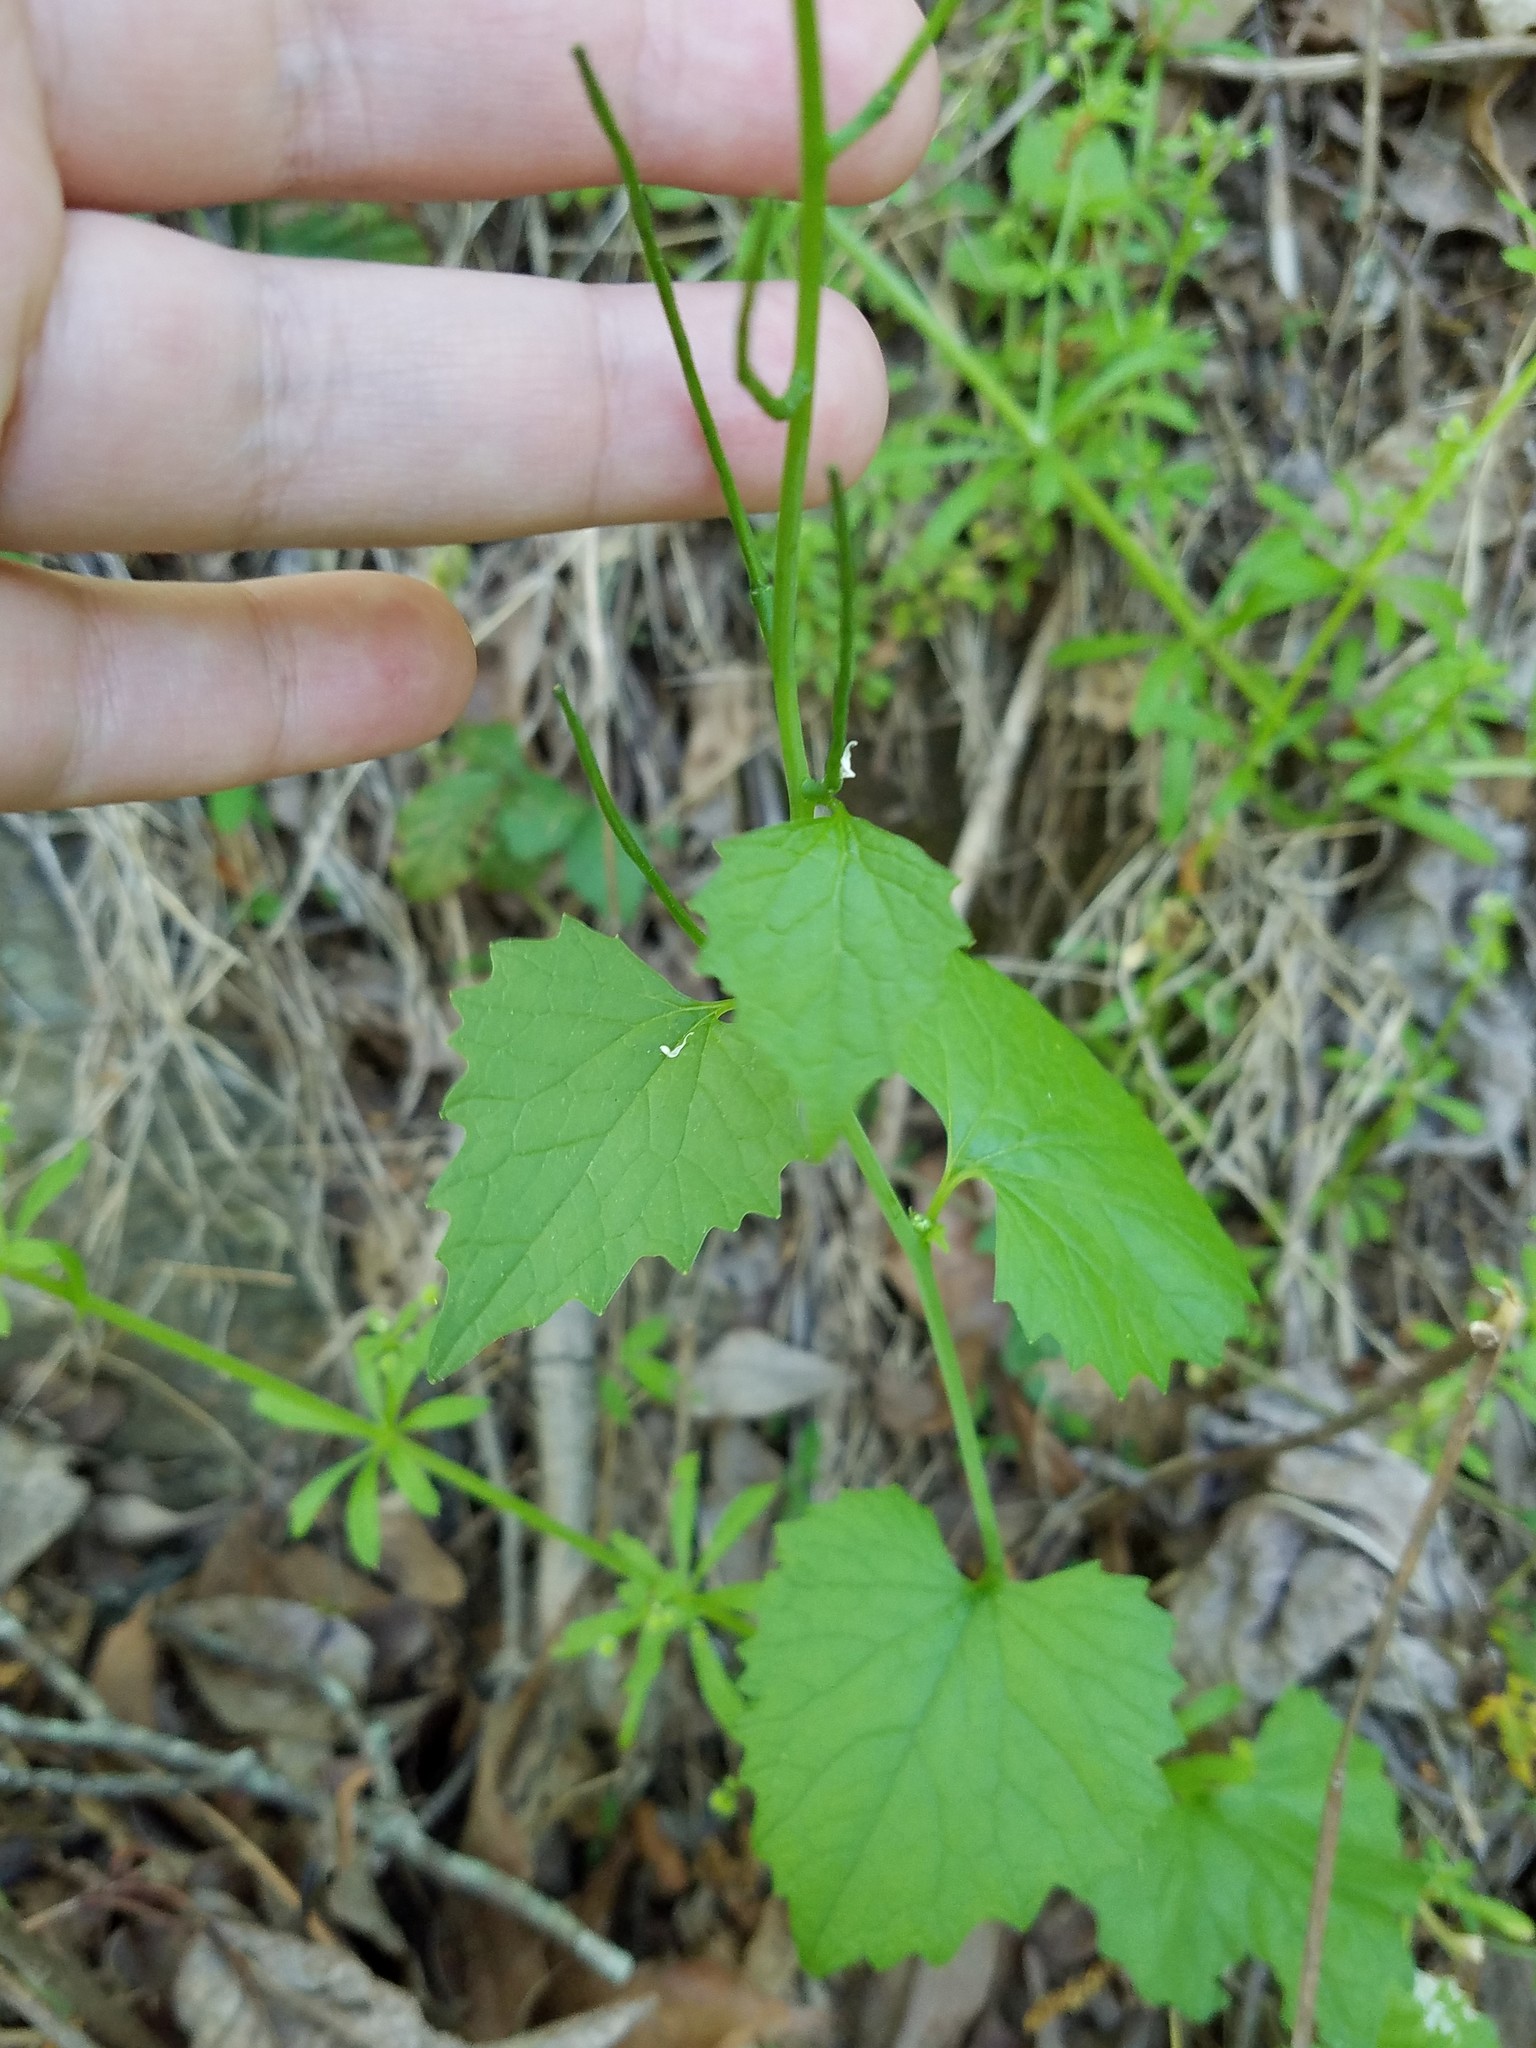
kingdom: Plantae
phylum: Tracheophyta
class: Magnoliopsida
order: Brassicales
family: Brassicaceae
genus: Alliaria
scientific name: Alliaria petiolata
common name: Garlic mustard
